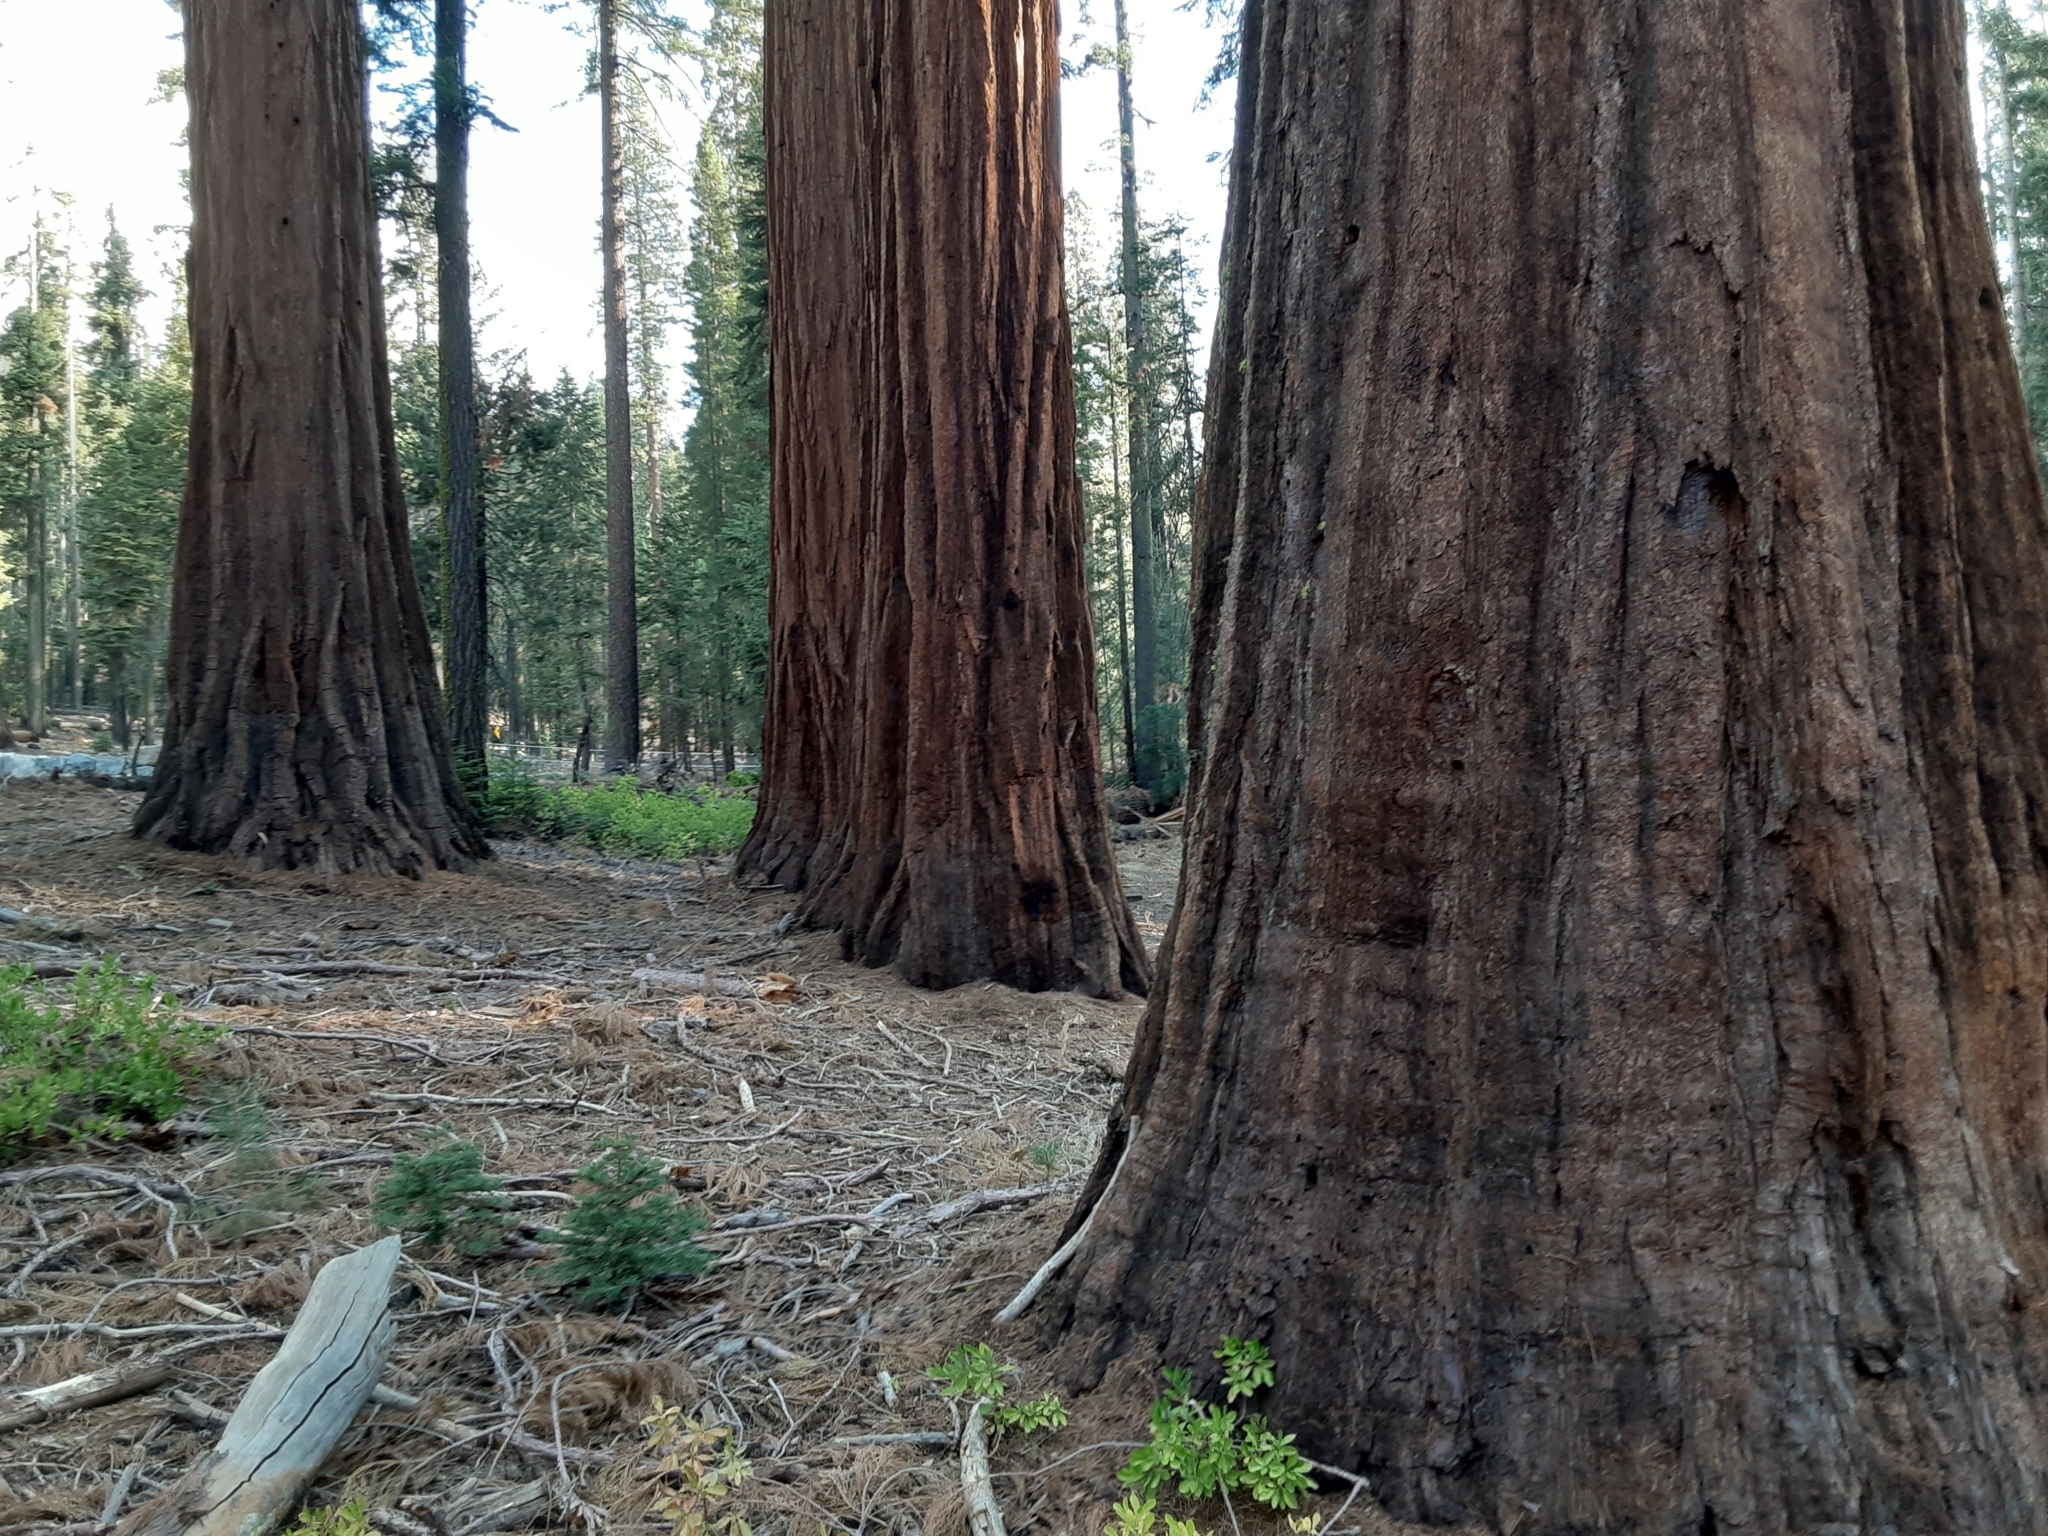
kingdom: Plantae
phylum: Tracheophyta
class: Pinopsida
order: Pinales
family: Cupressaceae
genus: Sequoiadendron
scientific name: Sequoiadendron giganteum
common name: Wellingtonia
